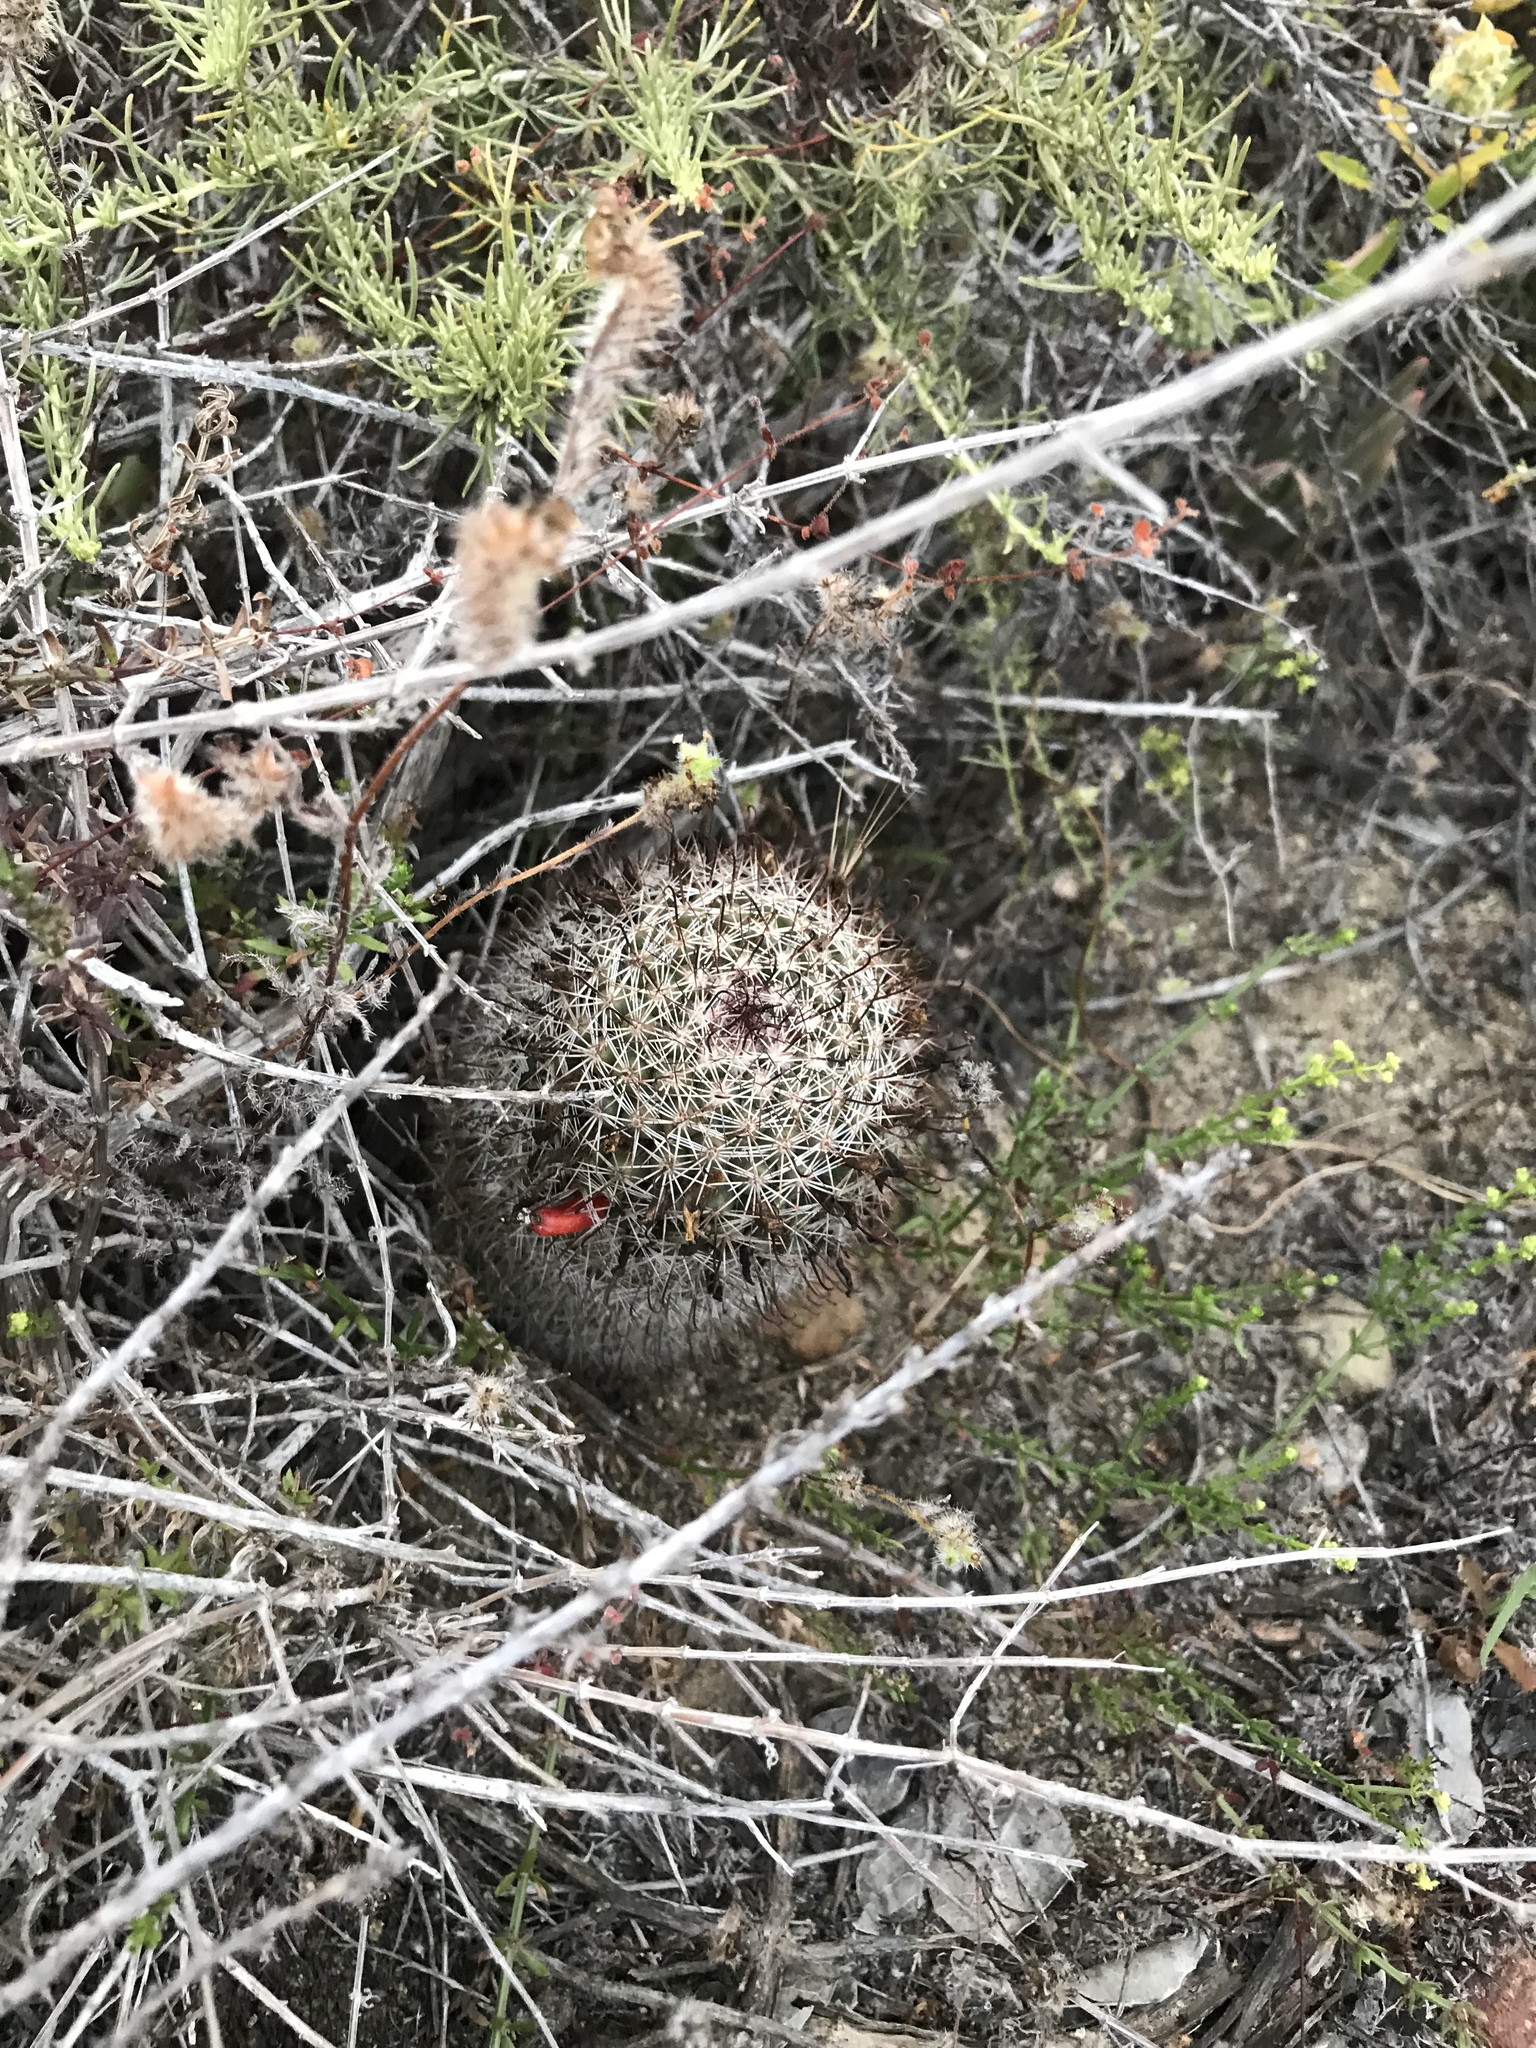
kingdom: Plantae
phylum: Tracheophyta
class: Magnoliopsida
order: Caryophyllales
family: Cactaceae
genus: Cochemiea
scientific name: Cochemiea dioica
